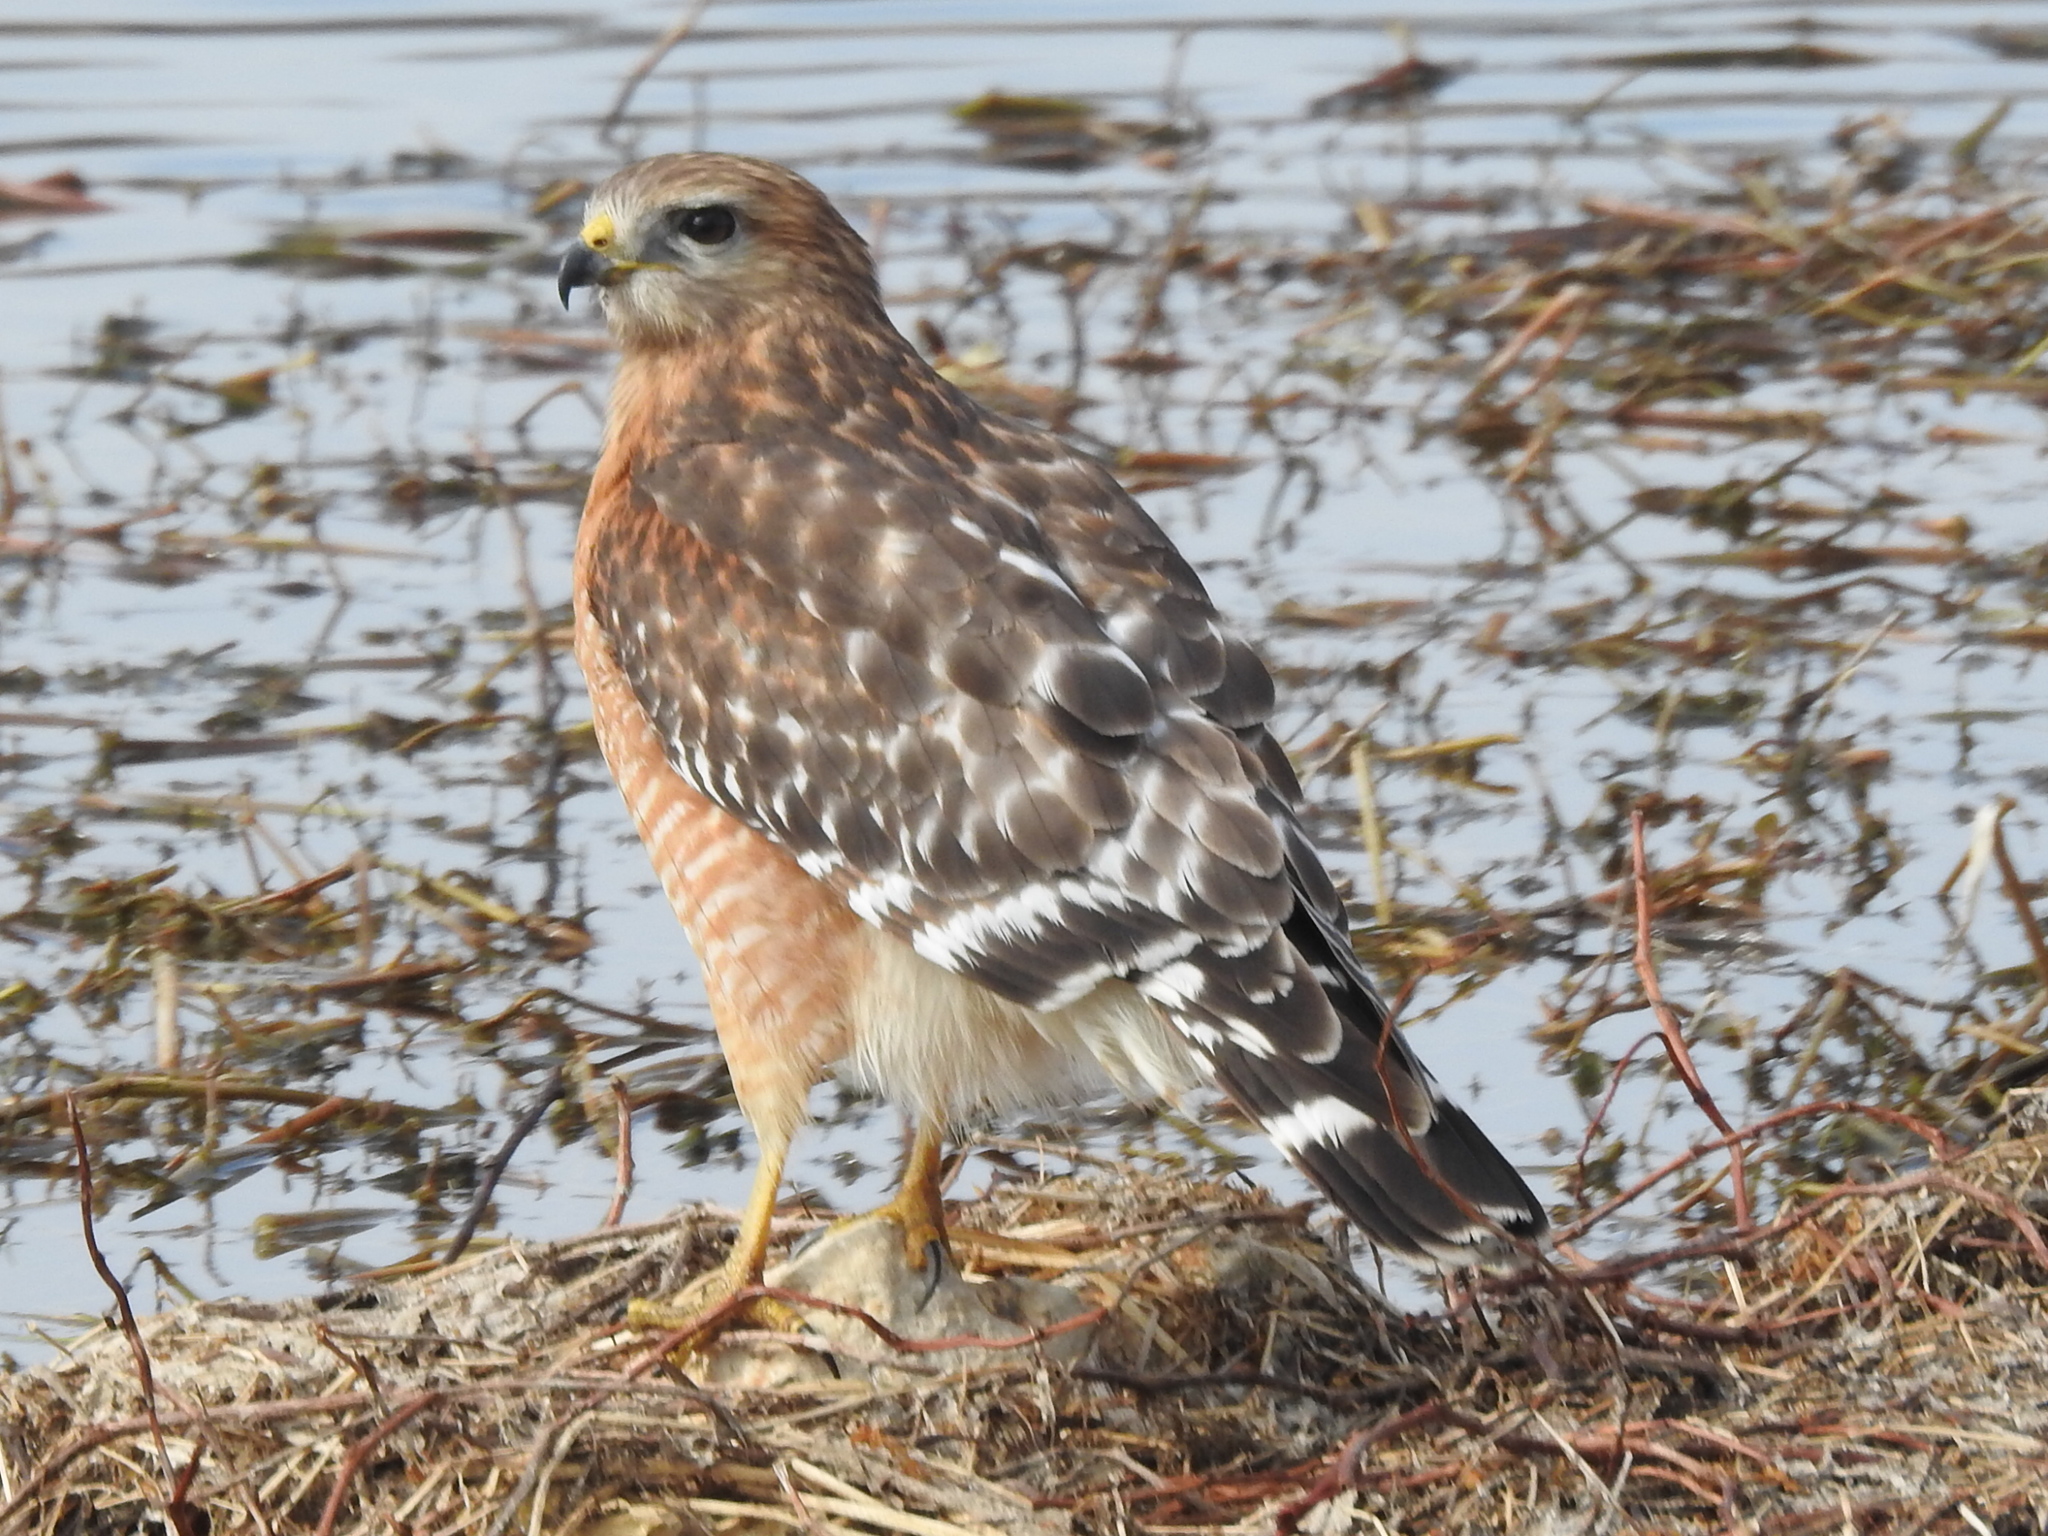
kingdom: Animalia
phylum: Chordata
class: Aves
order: Accipitriformes
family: Accipitridae
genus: Buteo
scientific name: Buteo lineatus
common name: Red-shouldered hawk
